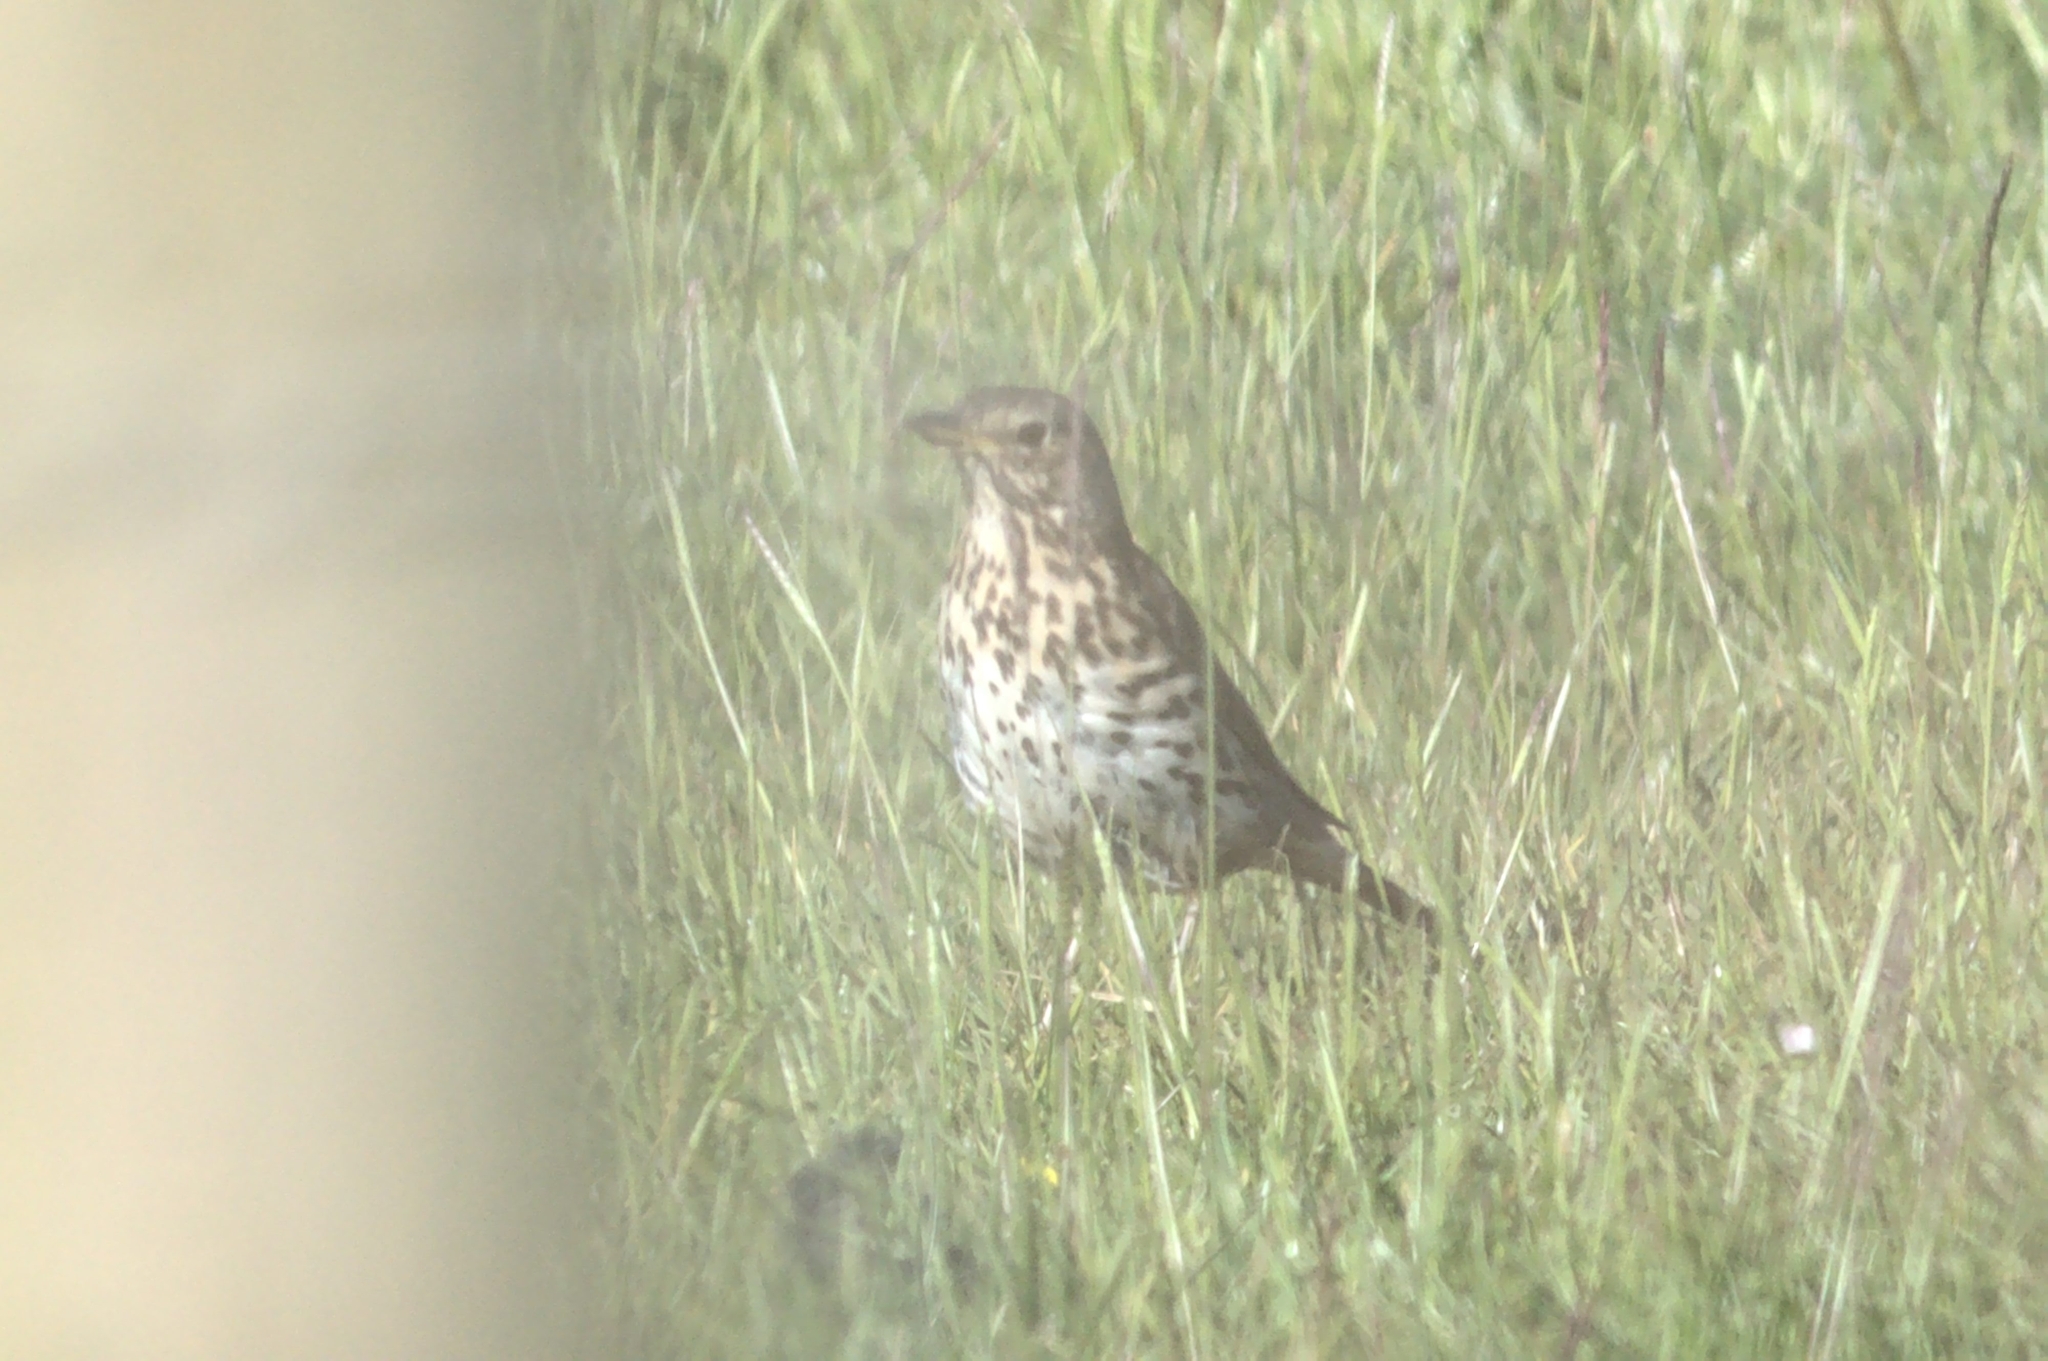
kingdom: Animalia
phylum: Chordata
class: Aves
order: Passeriformes
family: Turdidae
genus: Turdus
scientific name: Turdus philomelos
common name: Song thrush
